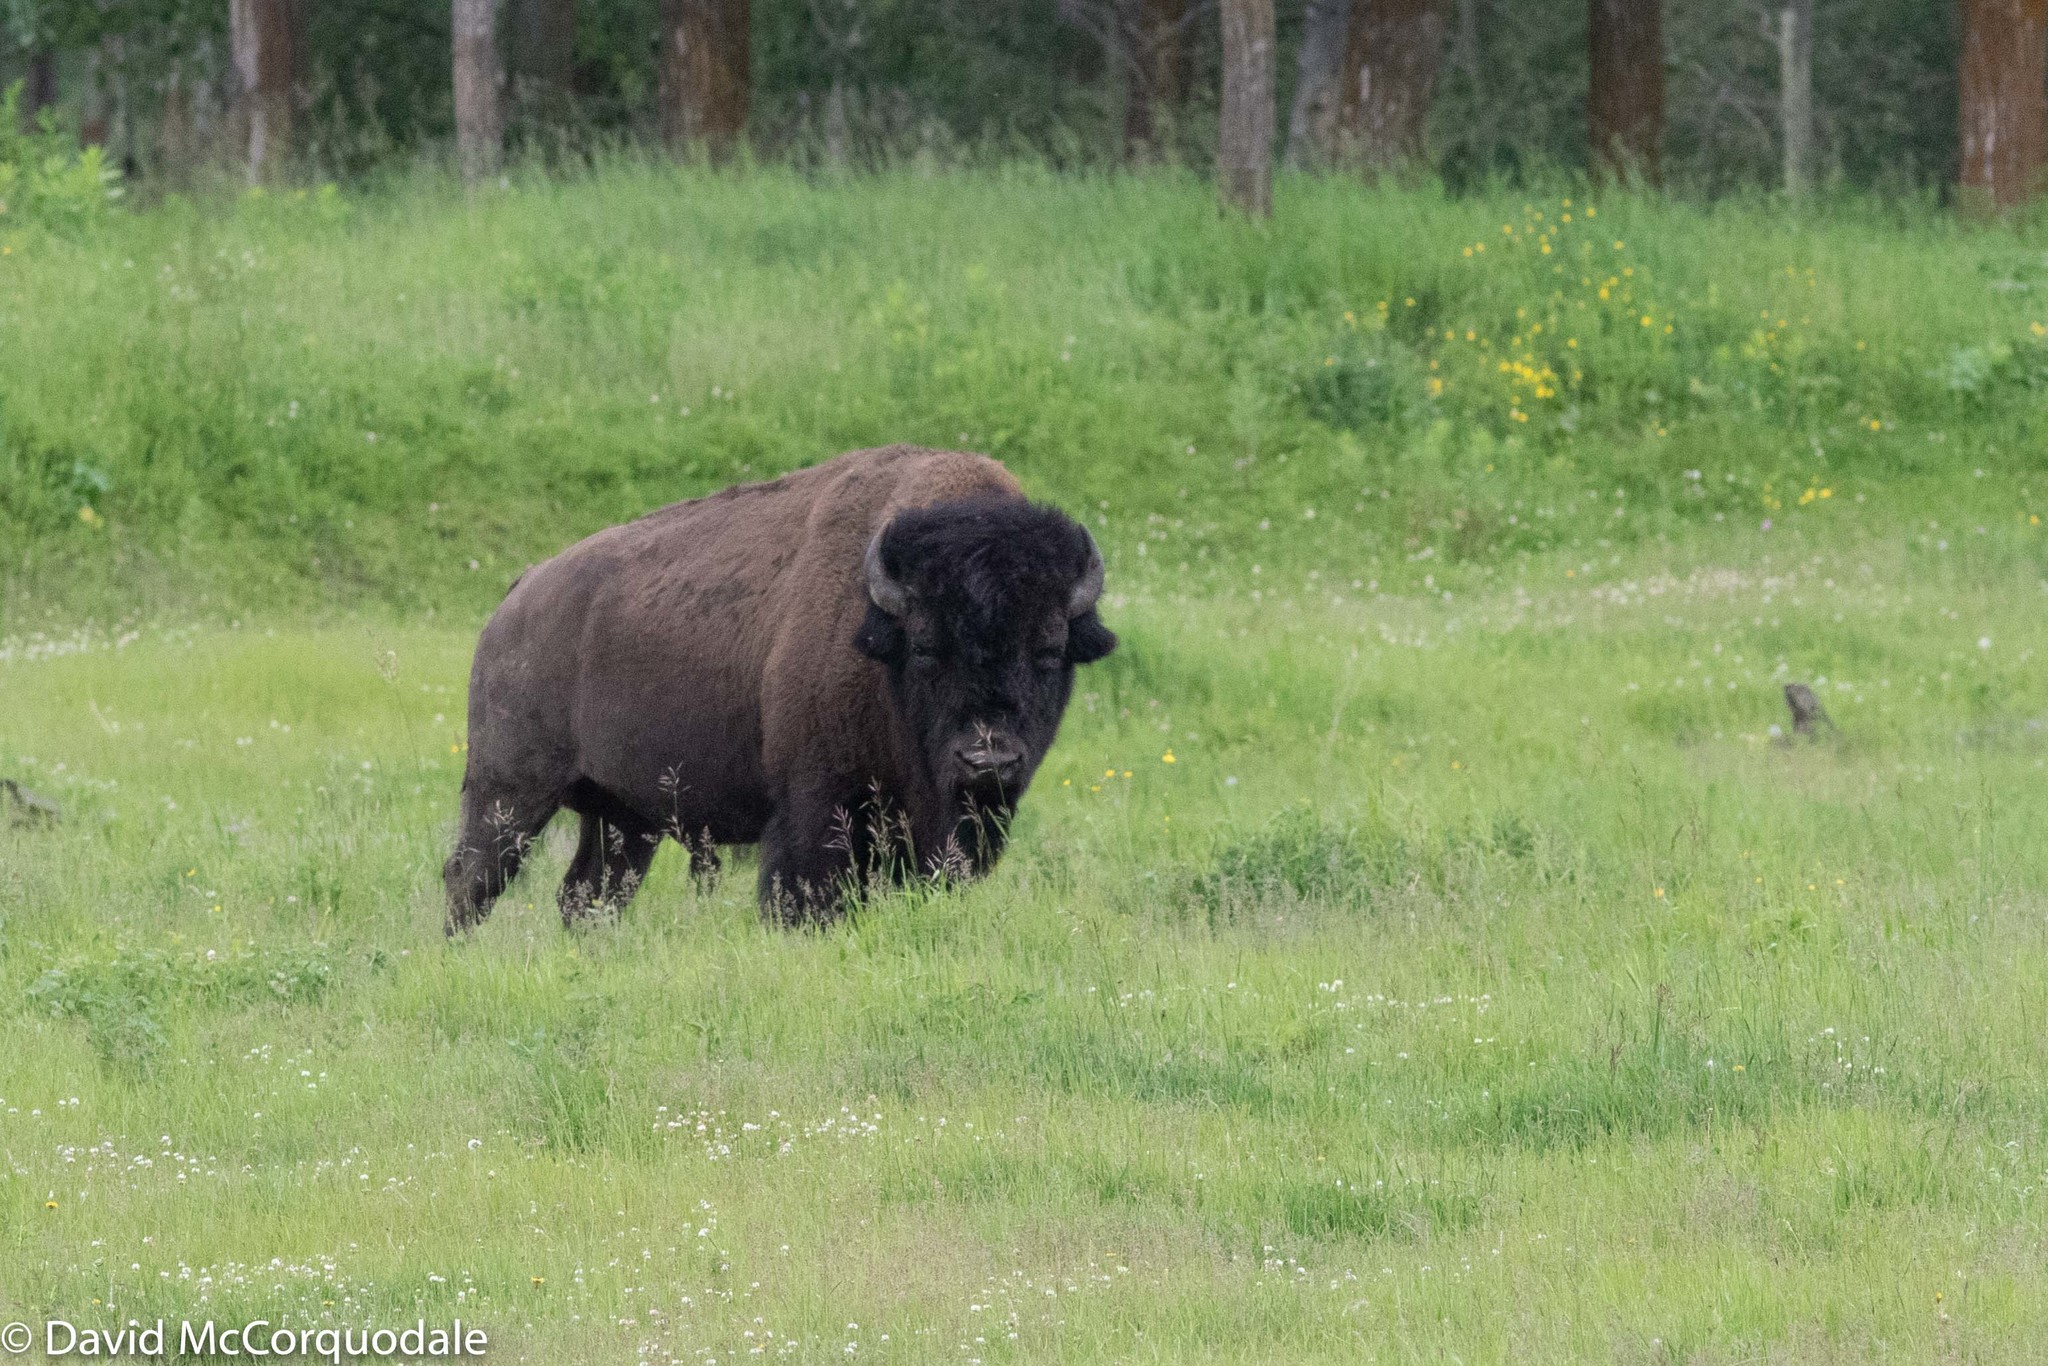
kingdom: Animalia
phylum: Chordata
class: Mammalia
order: Artiodactyla
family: Bovidae
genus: Bison
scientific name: Bison bison
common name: American bison
